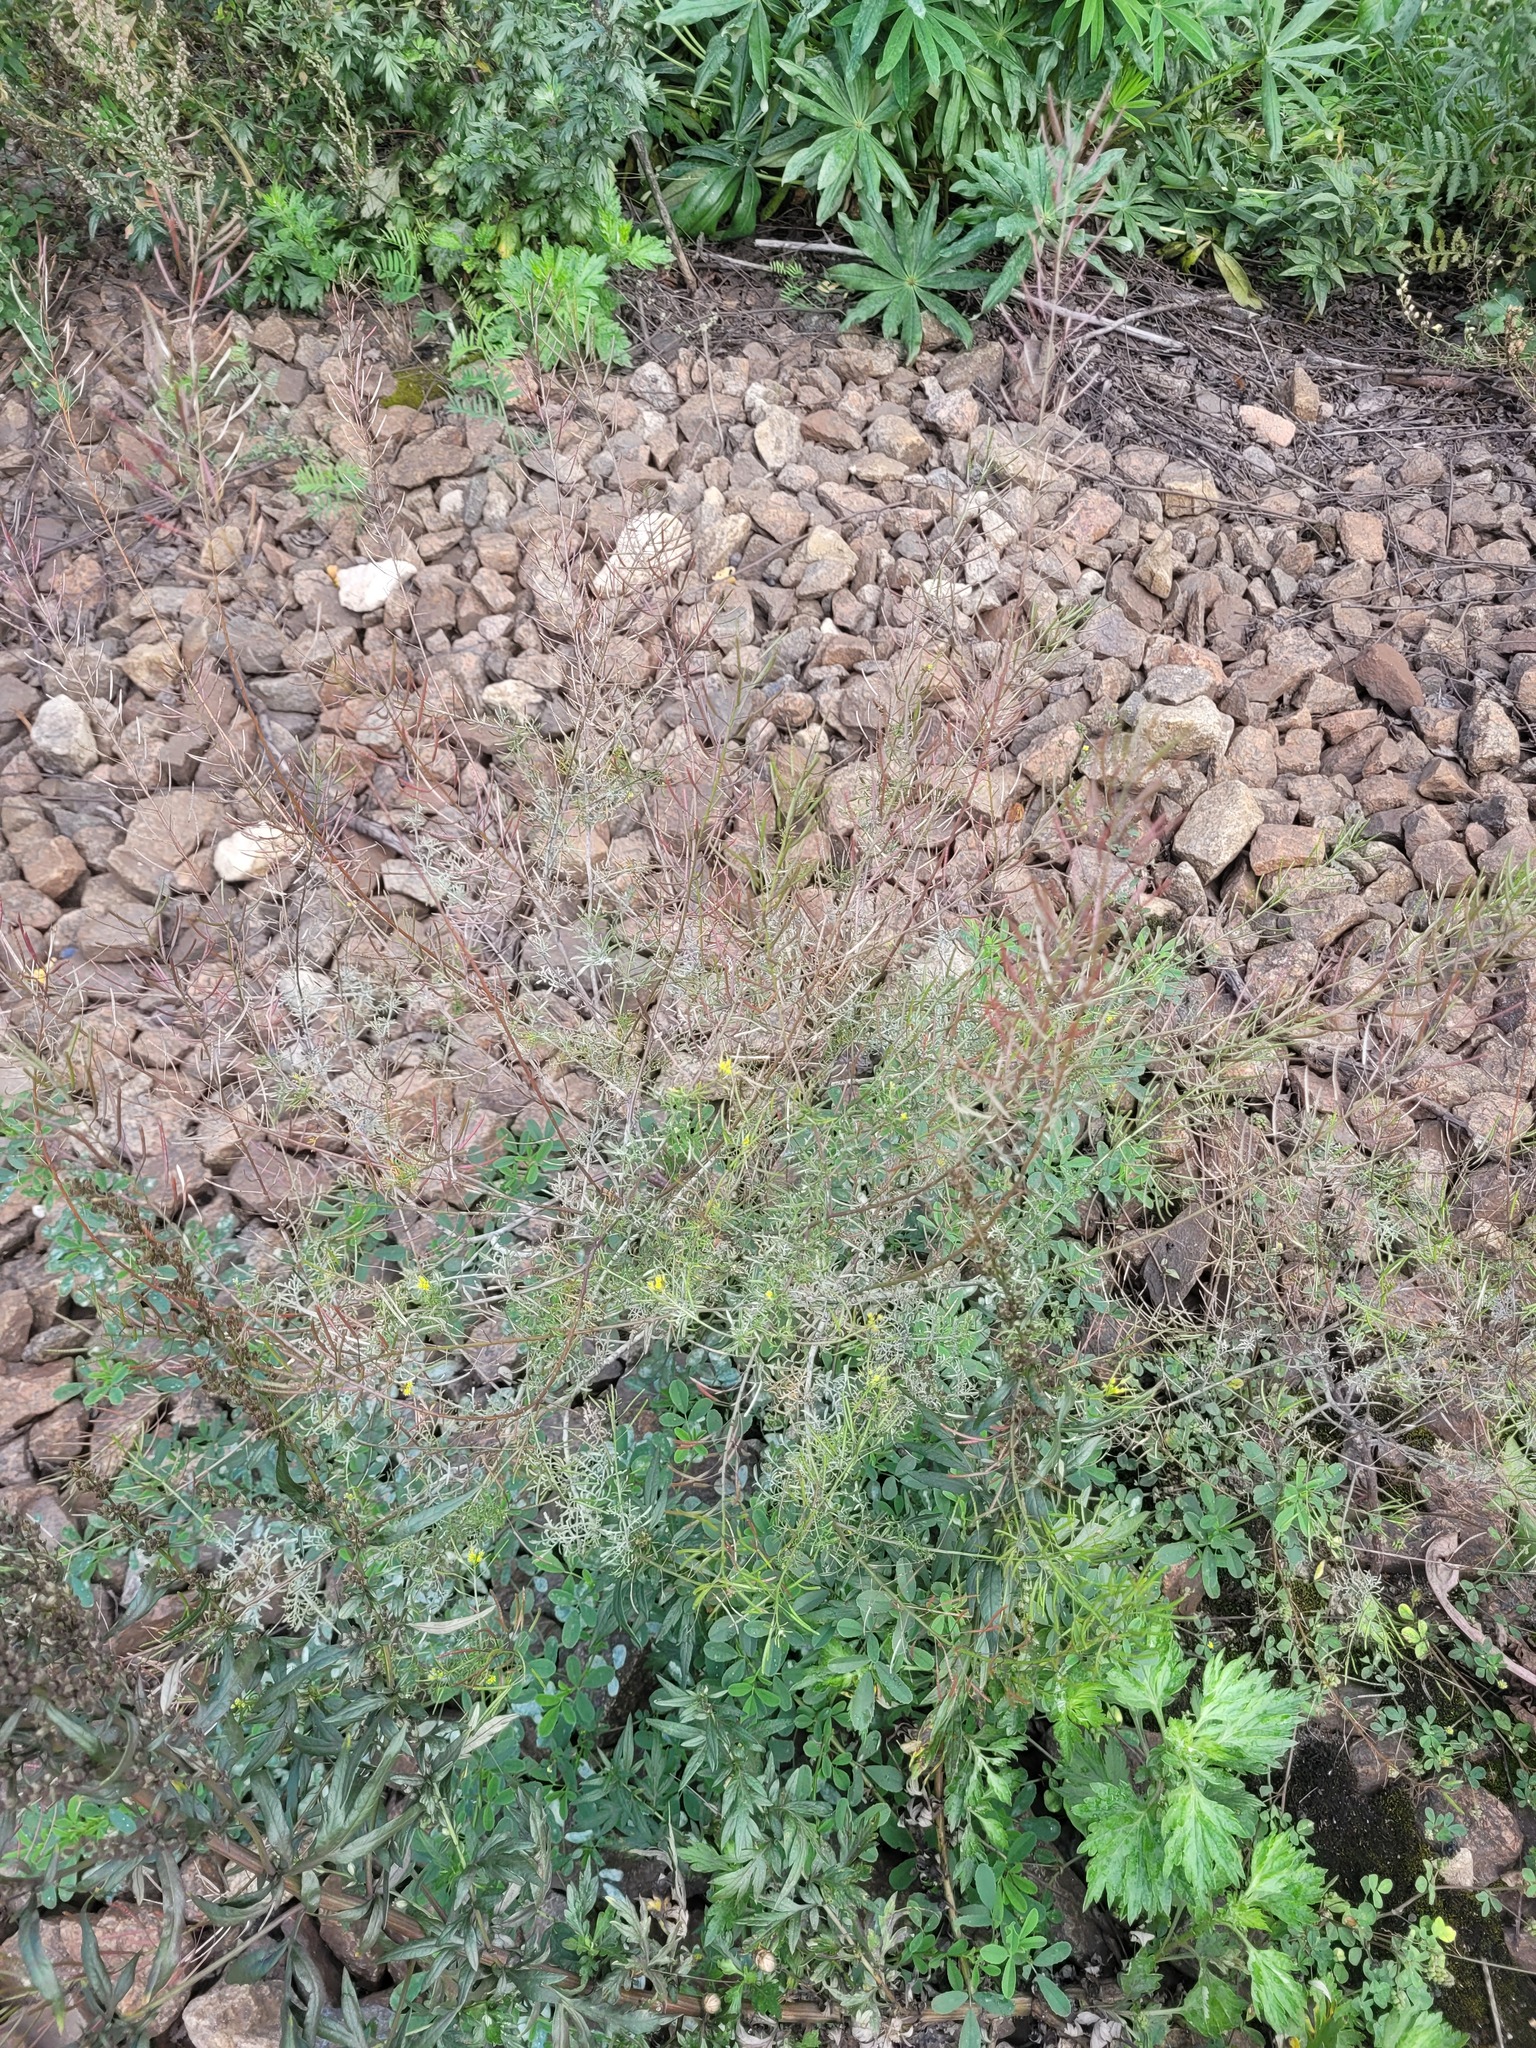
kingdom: Plantae
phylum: Tracheophyta
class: Magnoliopsida
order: Brassicales
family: Brassicaceae
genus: Descurainia
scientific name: Descurainia sophia
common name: Flixweed
